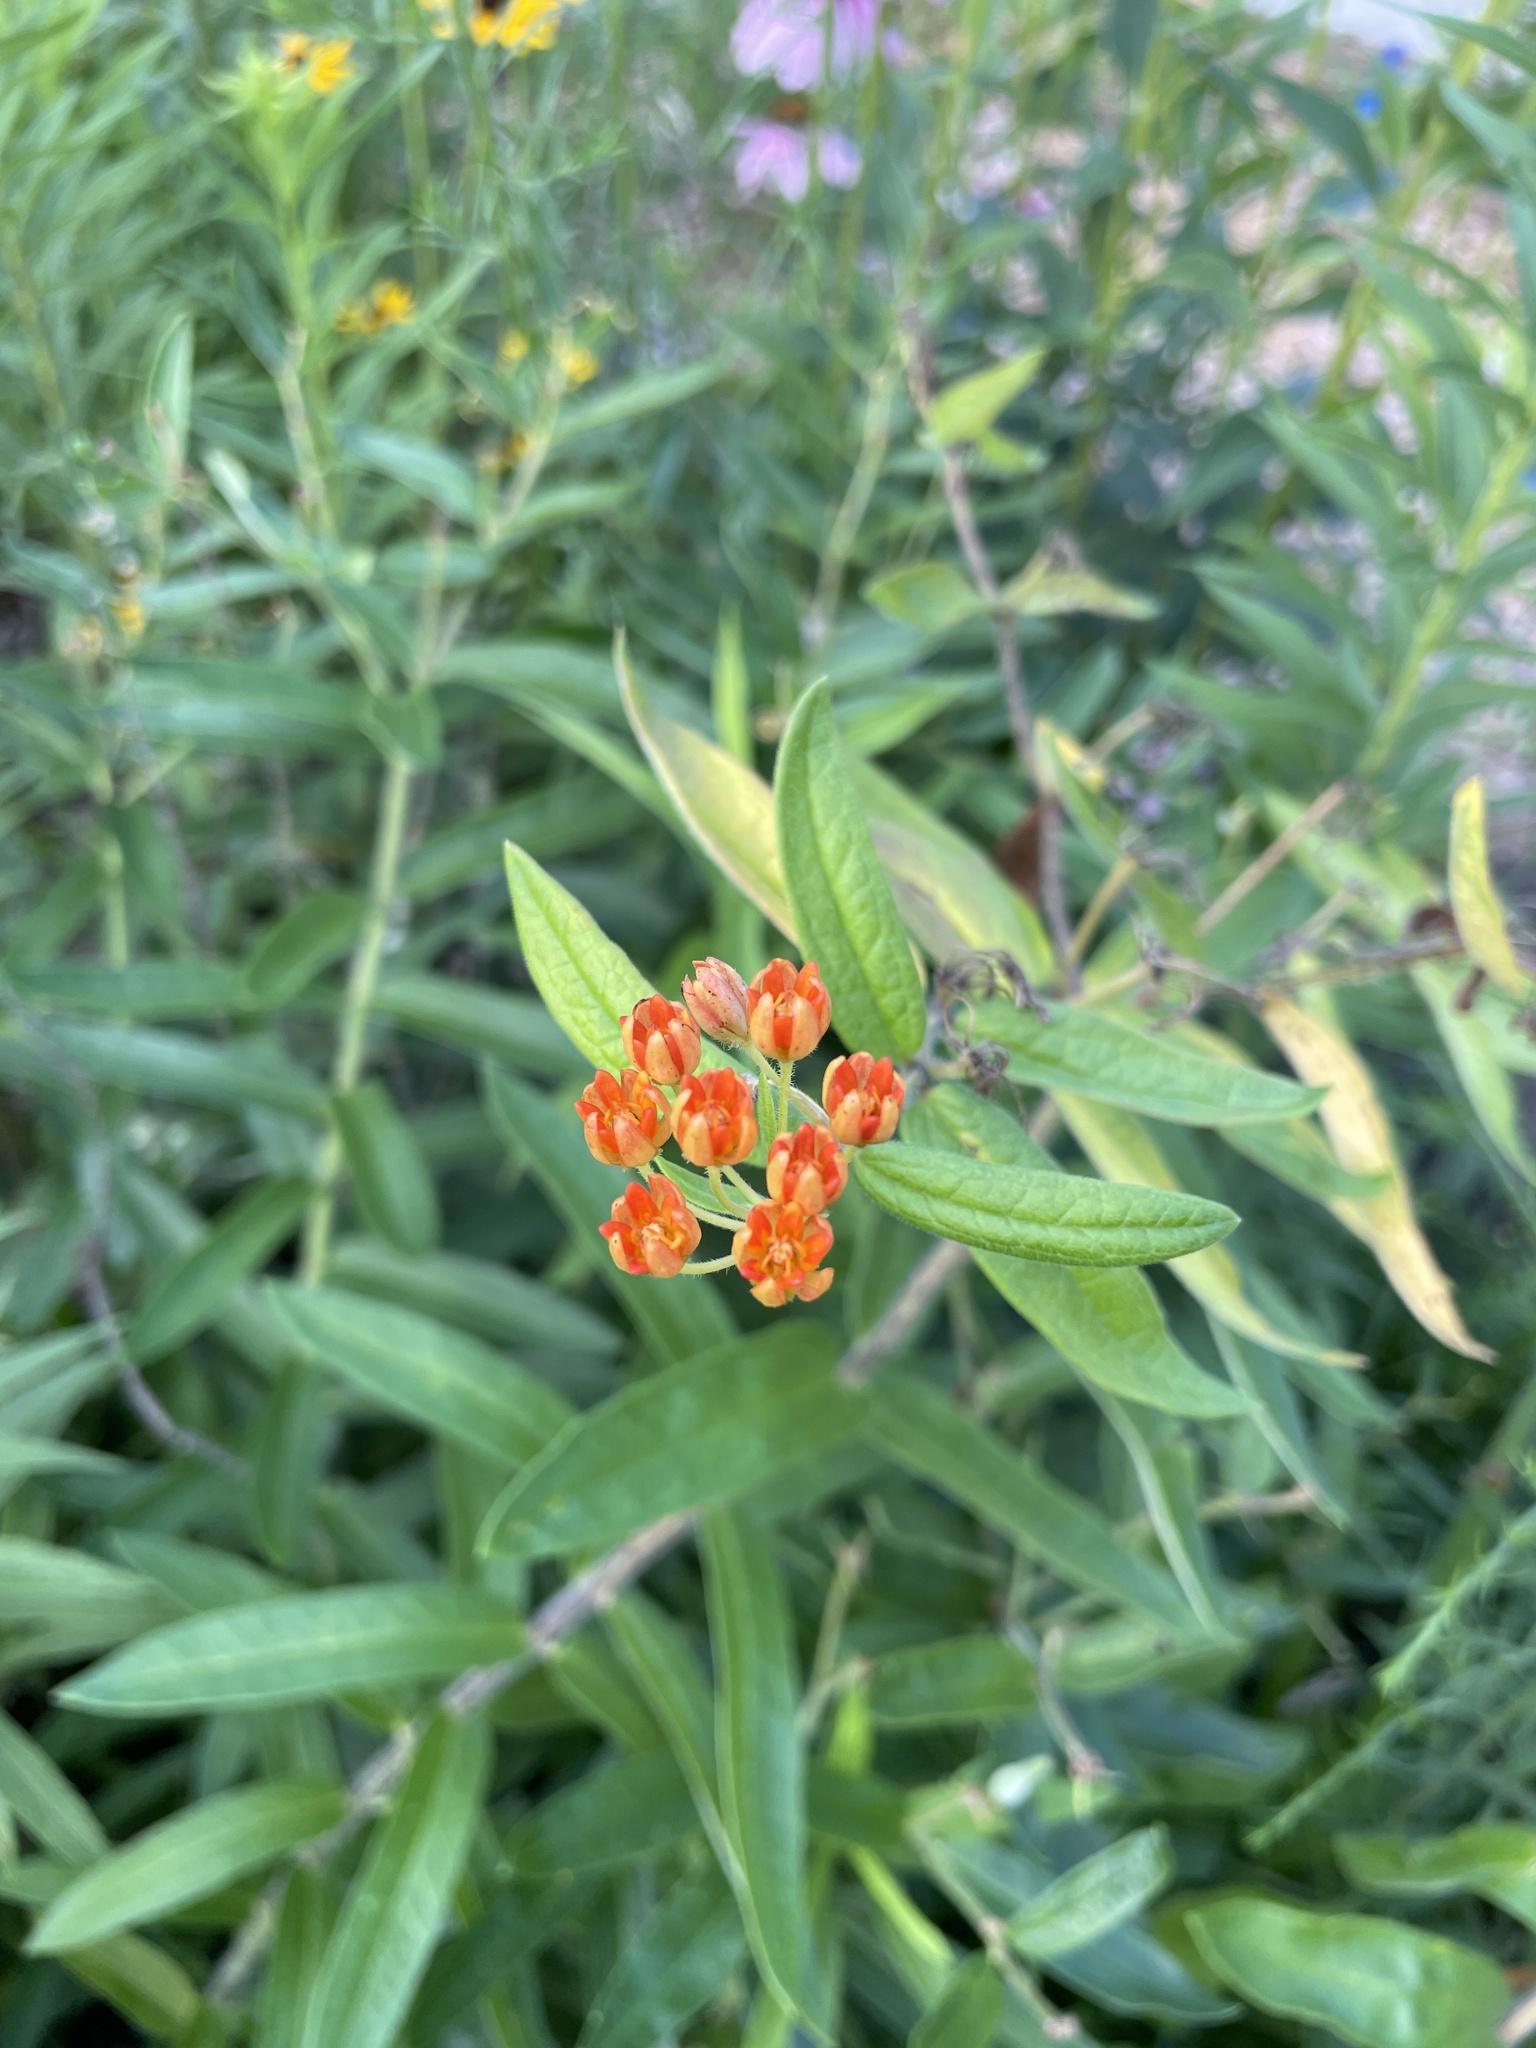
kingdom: Plantae
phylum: Tracheophyta
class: Magnoliopsida
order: Gentianales
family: Apocynaceae
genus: Asclepias
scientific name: Asclepias tuberosa
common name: Butterfly milkweed
